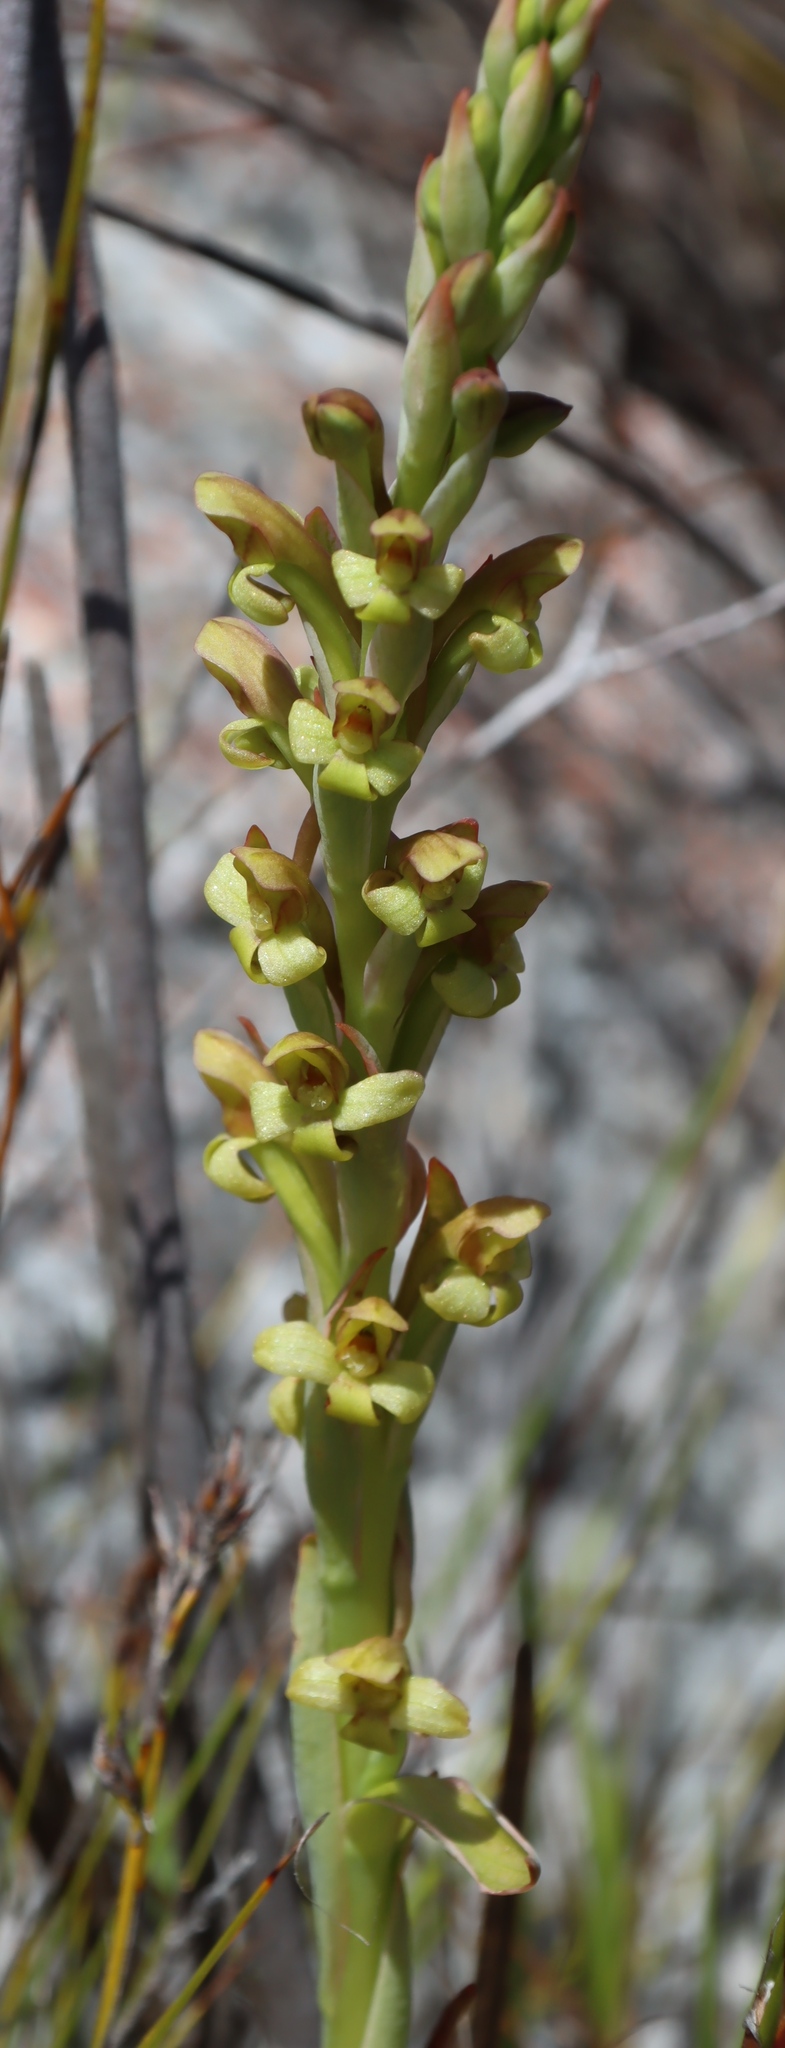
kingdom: Plantae
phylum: Tracheophyta
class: Liliopsida
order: Asparagales
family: Orchidaceae
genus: Disa
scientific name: Disa bolusiana
